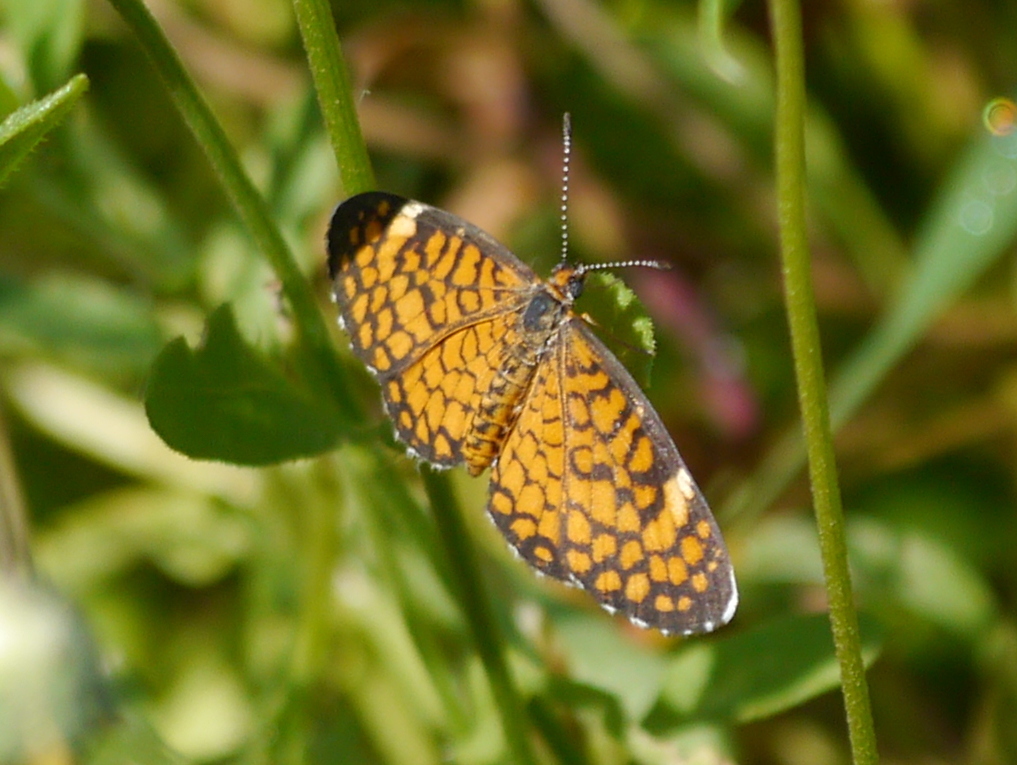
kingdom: Animalia
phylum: Arthropoda
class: Insecta
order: Lepidoptera
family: Nymphalidae
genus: Dymasia
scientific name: Dymasia dymas
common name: Tiny checkerspot
